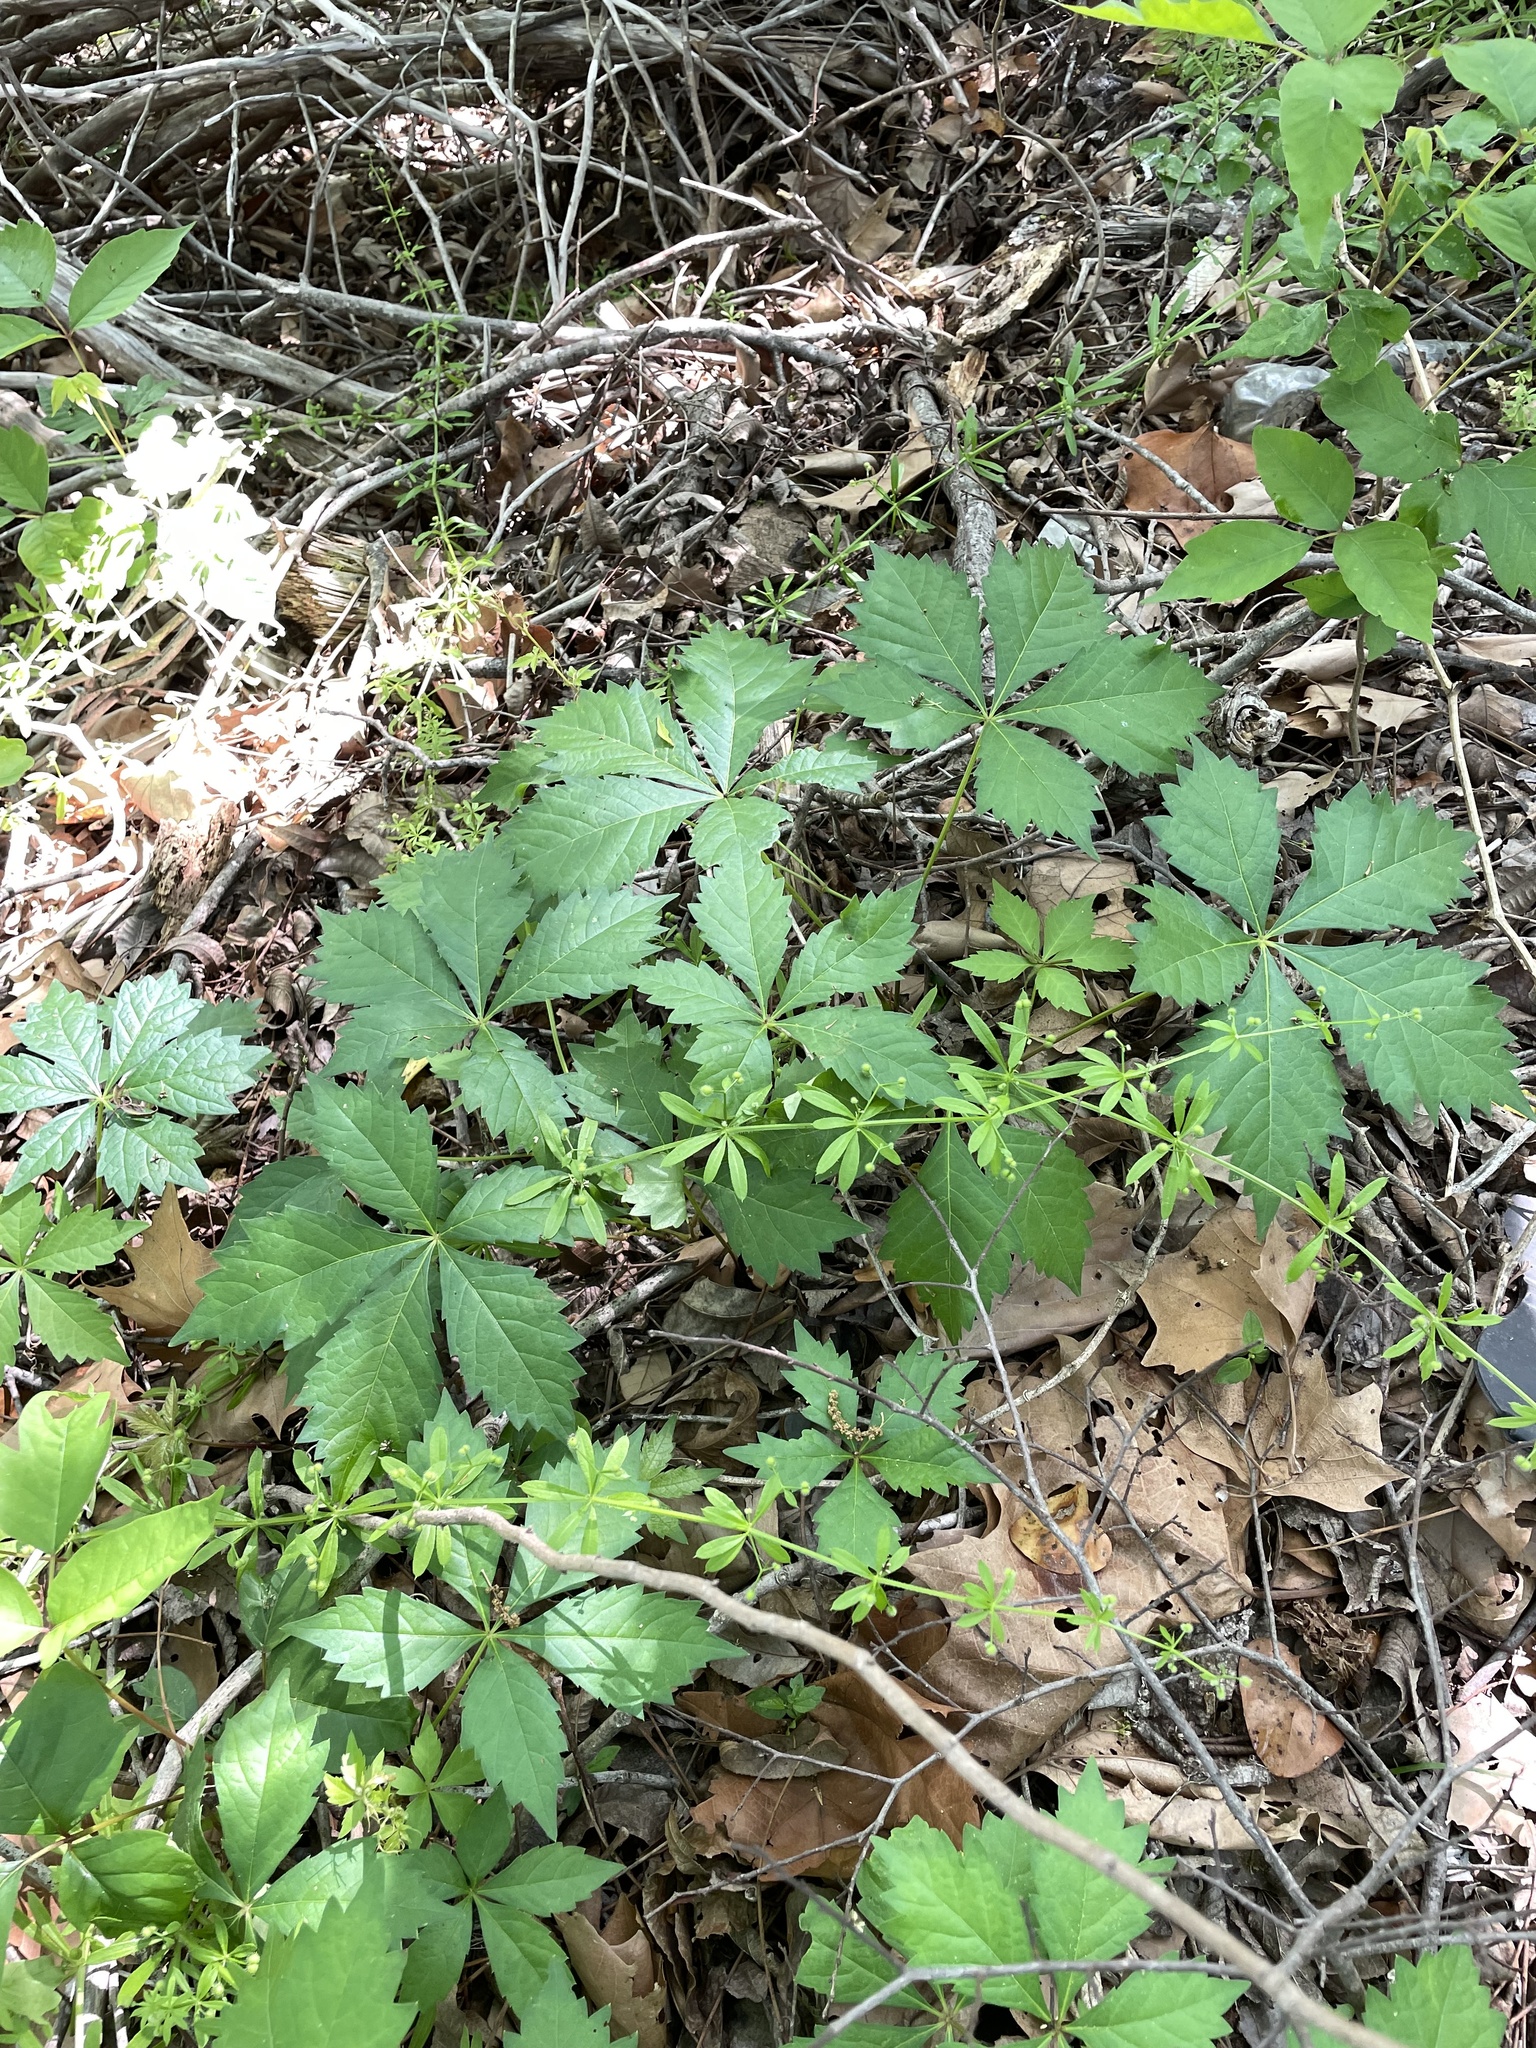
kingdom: Plantae
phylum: Tracheophyta
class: Magnoliopsida
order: Vitales
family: Vitaceae
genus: Parthenocissus
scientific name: Parthenocissus quinquefolia
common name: Virginia-creeper
